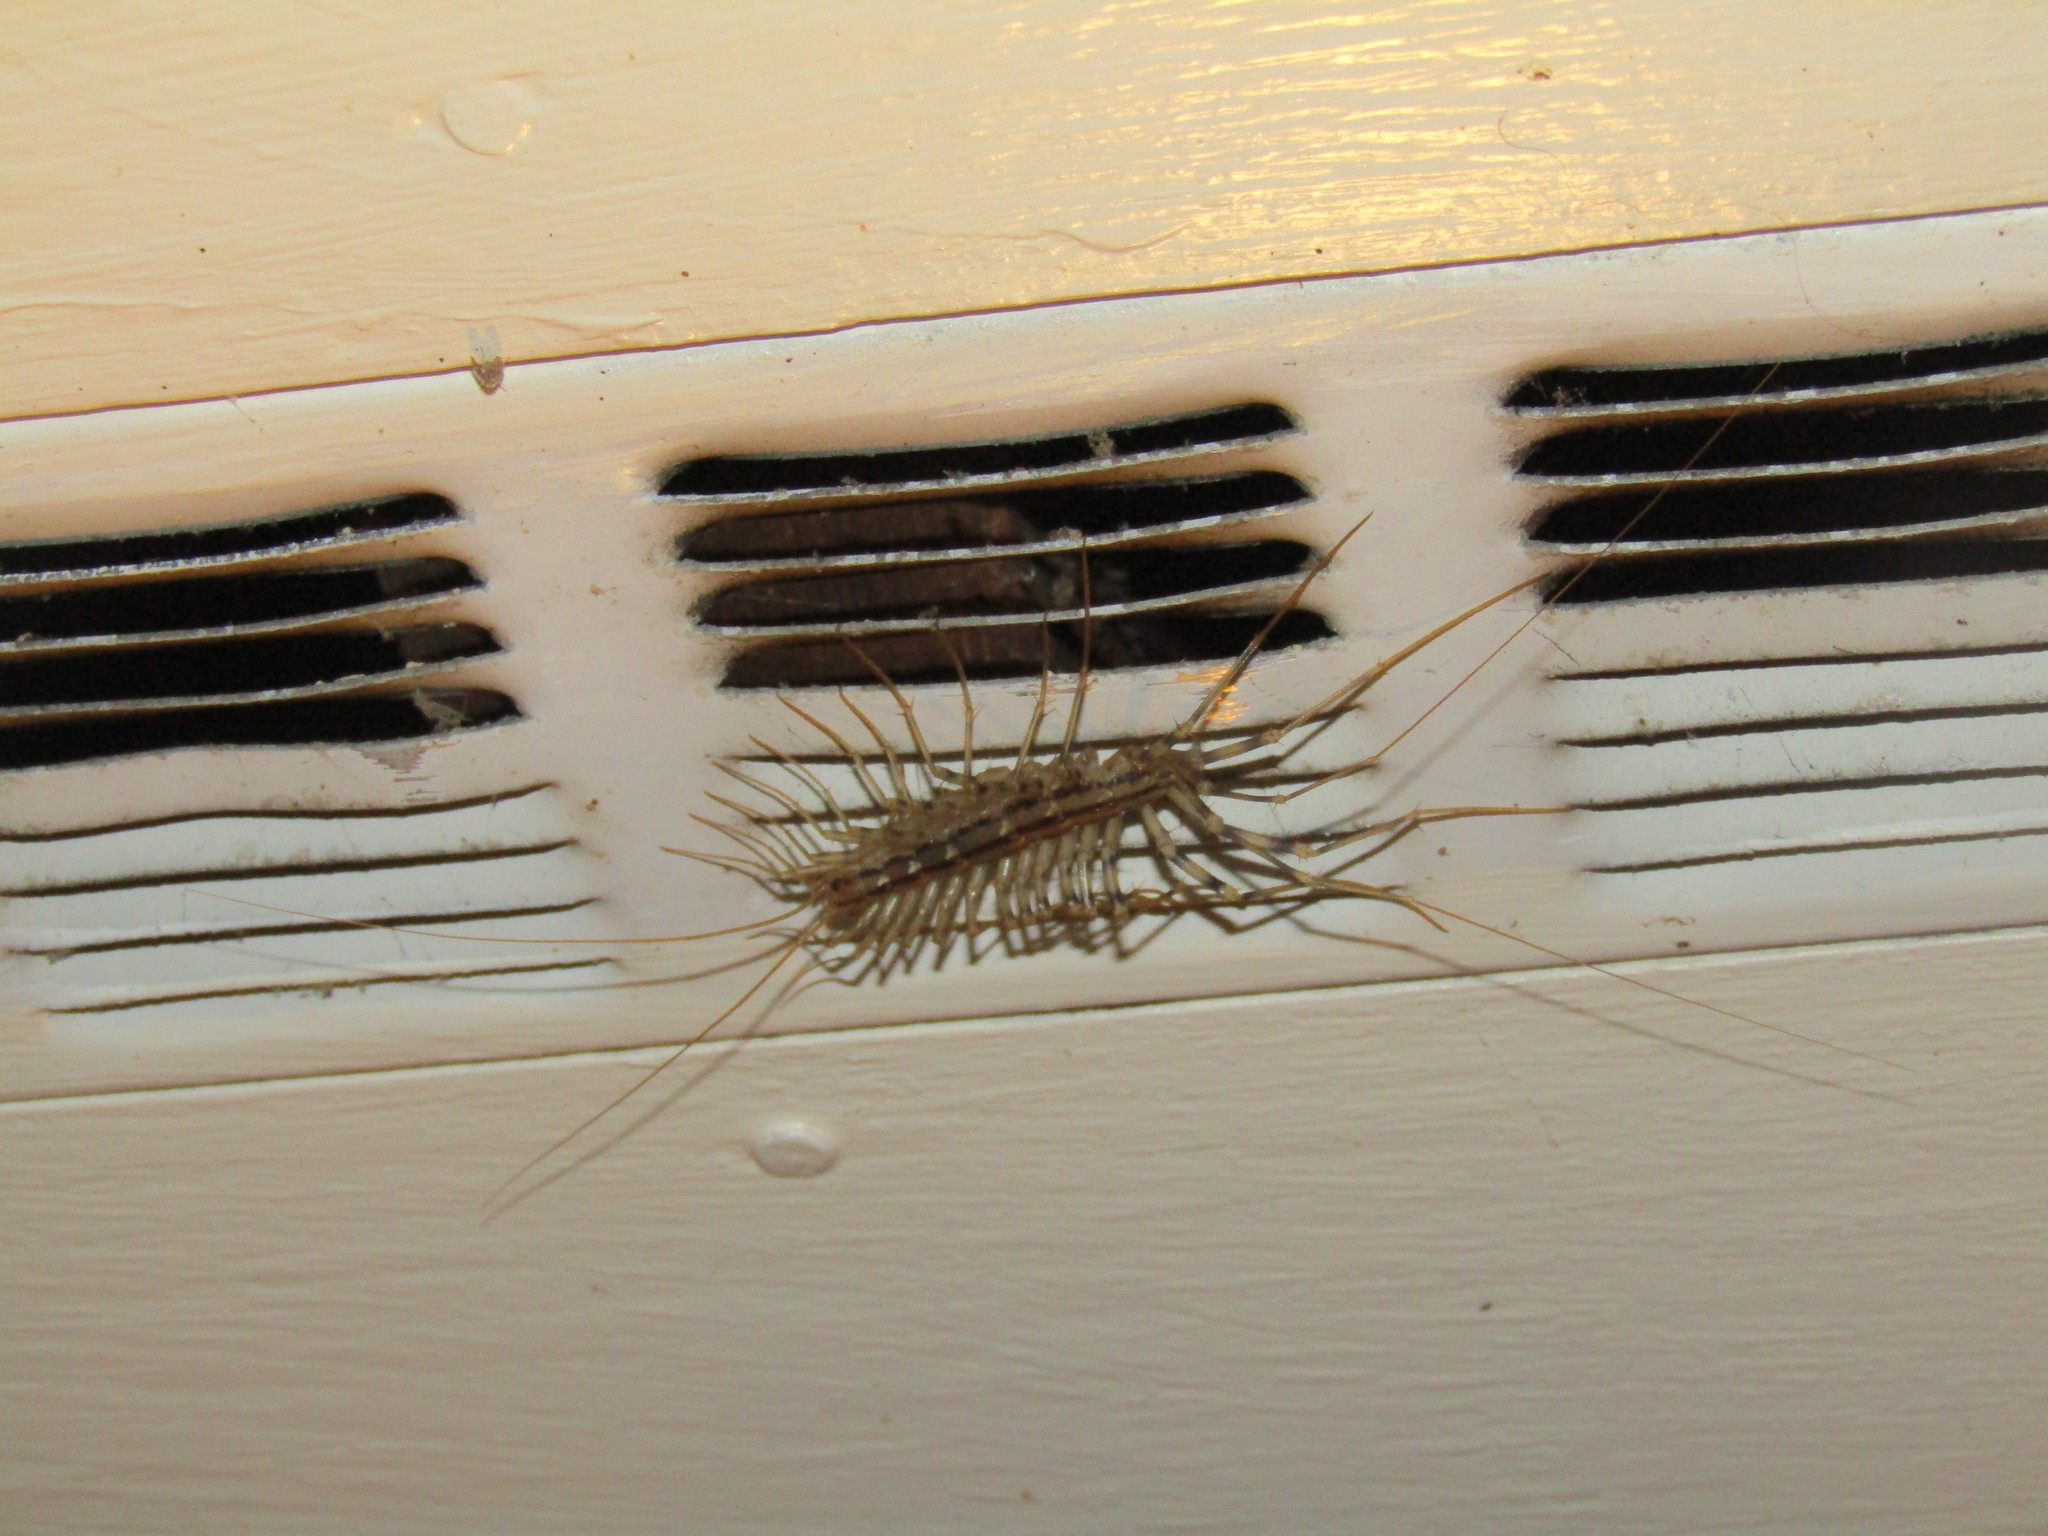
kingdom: Animalia
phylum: Arthropoda
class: Chilopoda
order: Scutigeromorpha
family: Scutigeridae
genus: Scutigera
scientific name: Scutigera coleoptrata
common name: House centipede
